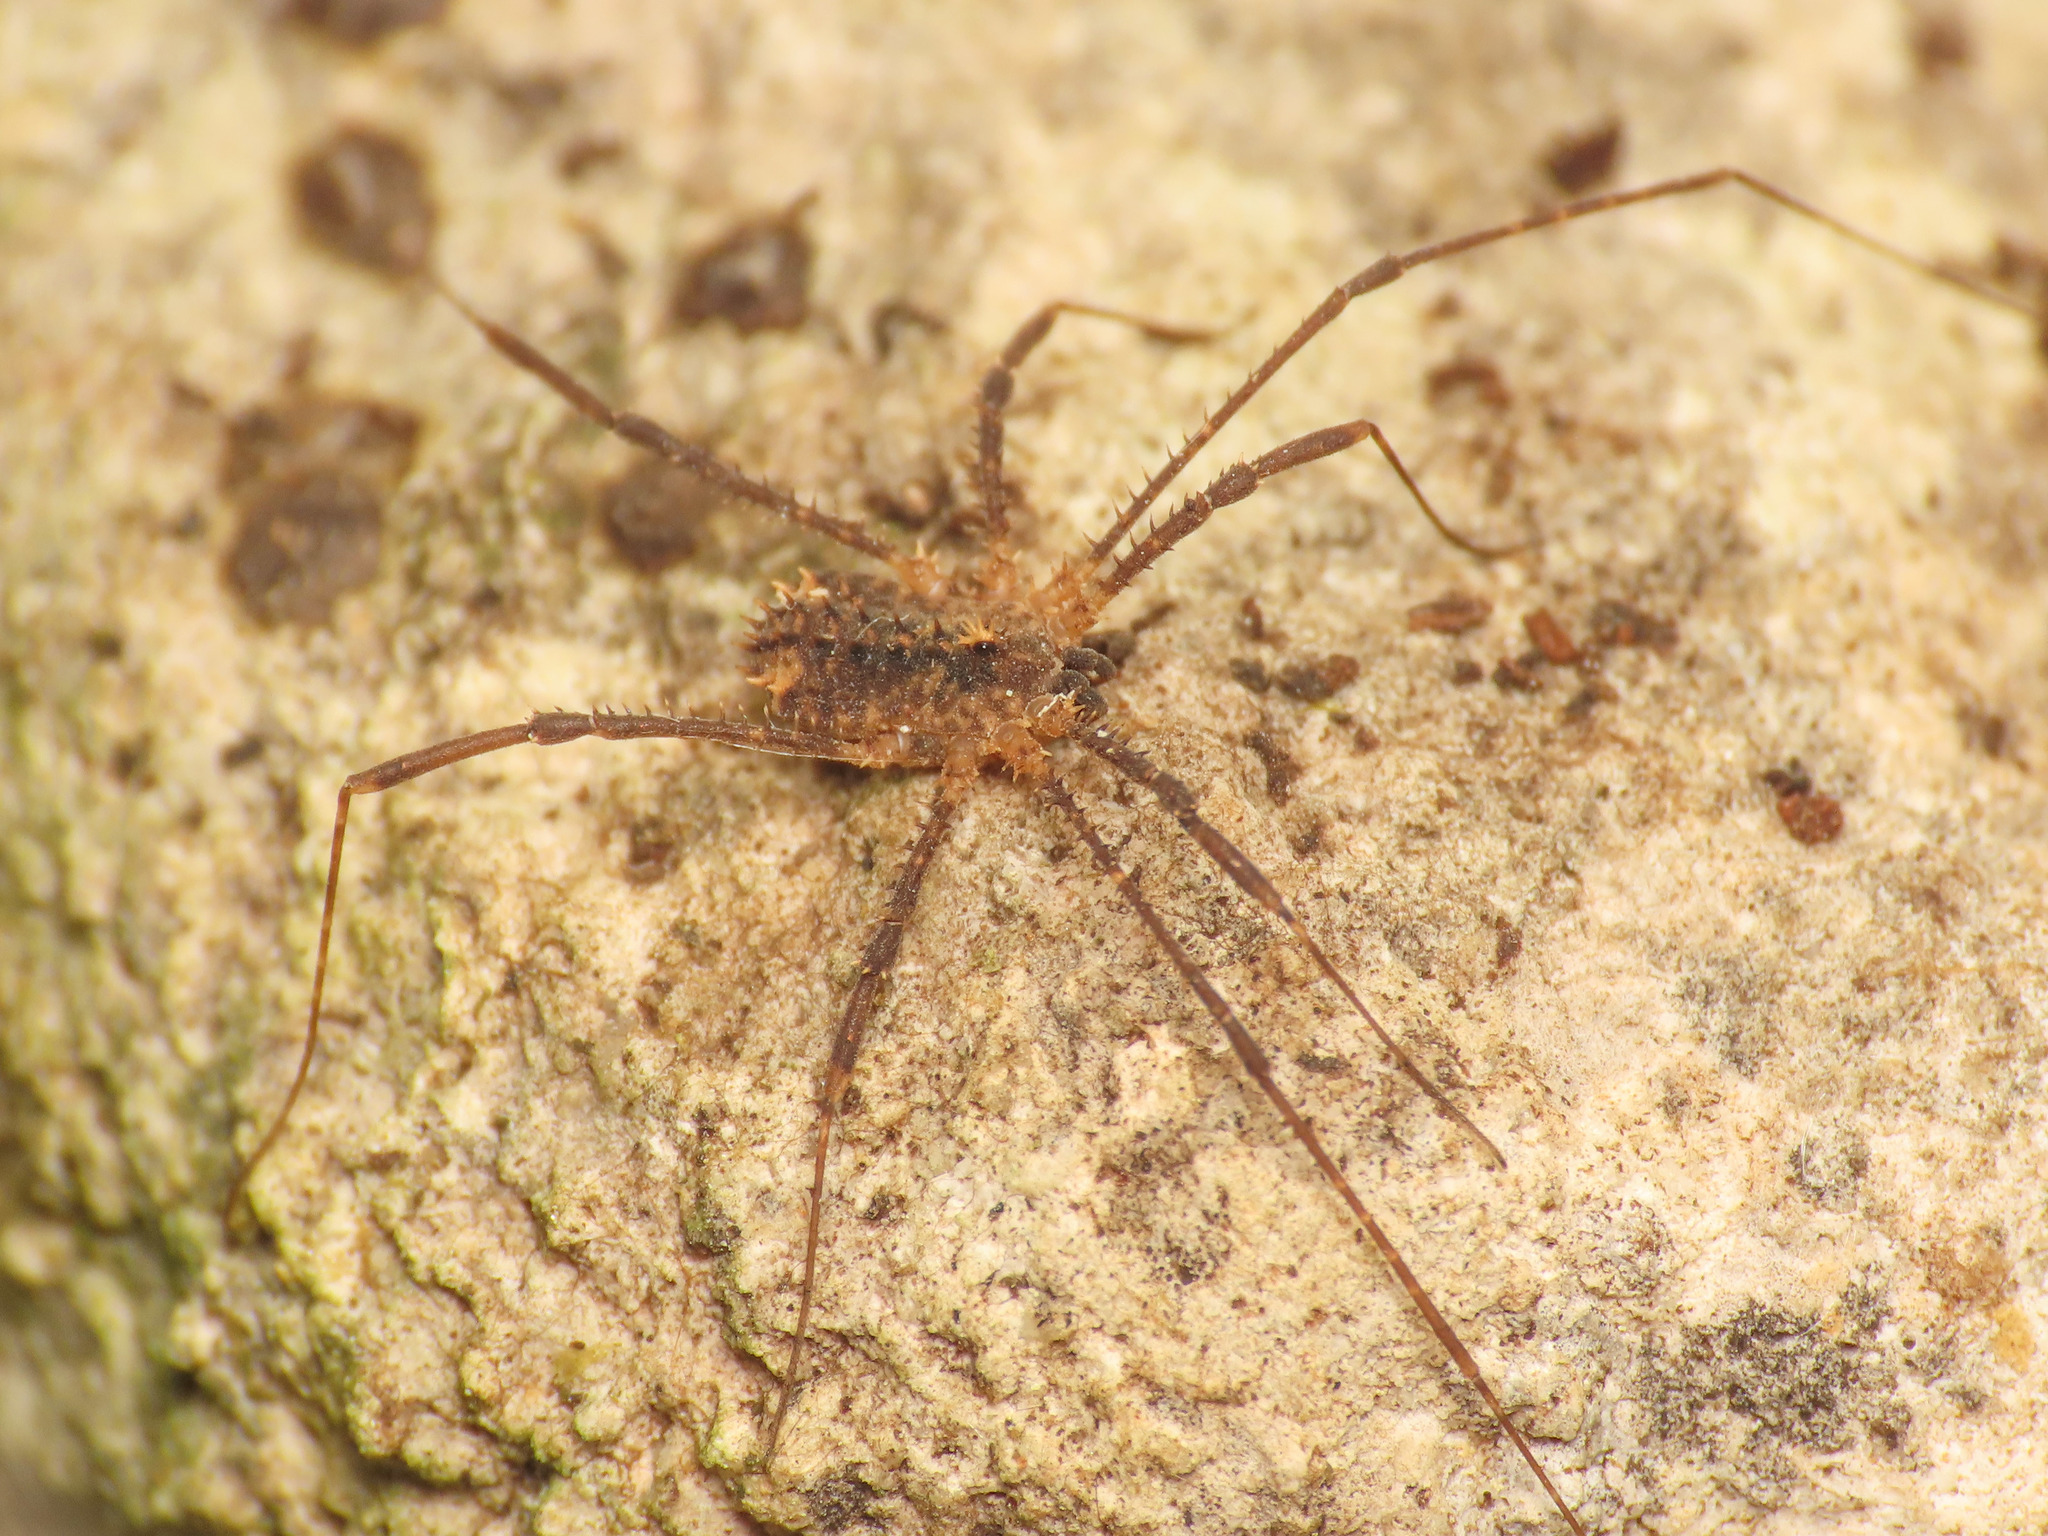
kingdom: Animalia
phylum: Arthropoda
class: Arachnida
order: Opiliones
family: Sclerosomatidae
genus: Astrobunus
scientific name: Astrobunus kochii
